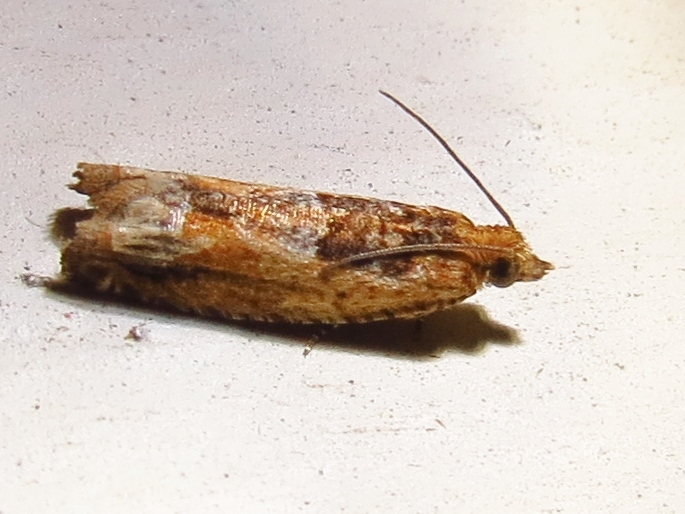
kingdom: Animalia
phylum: Arthropoda
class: Insecta
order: Lepidoptera
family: Tortricidae
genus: Crocidosema
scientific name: Crocidosema plebejana
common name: Southern bell
